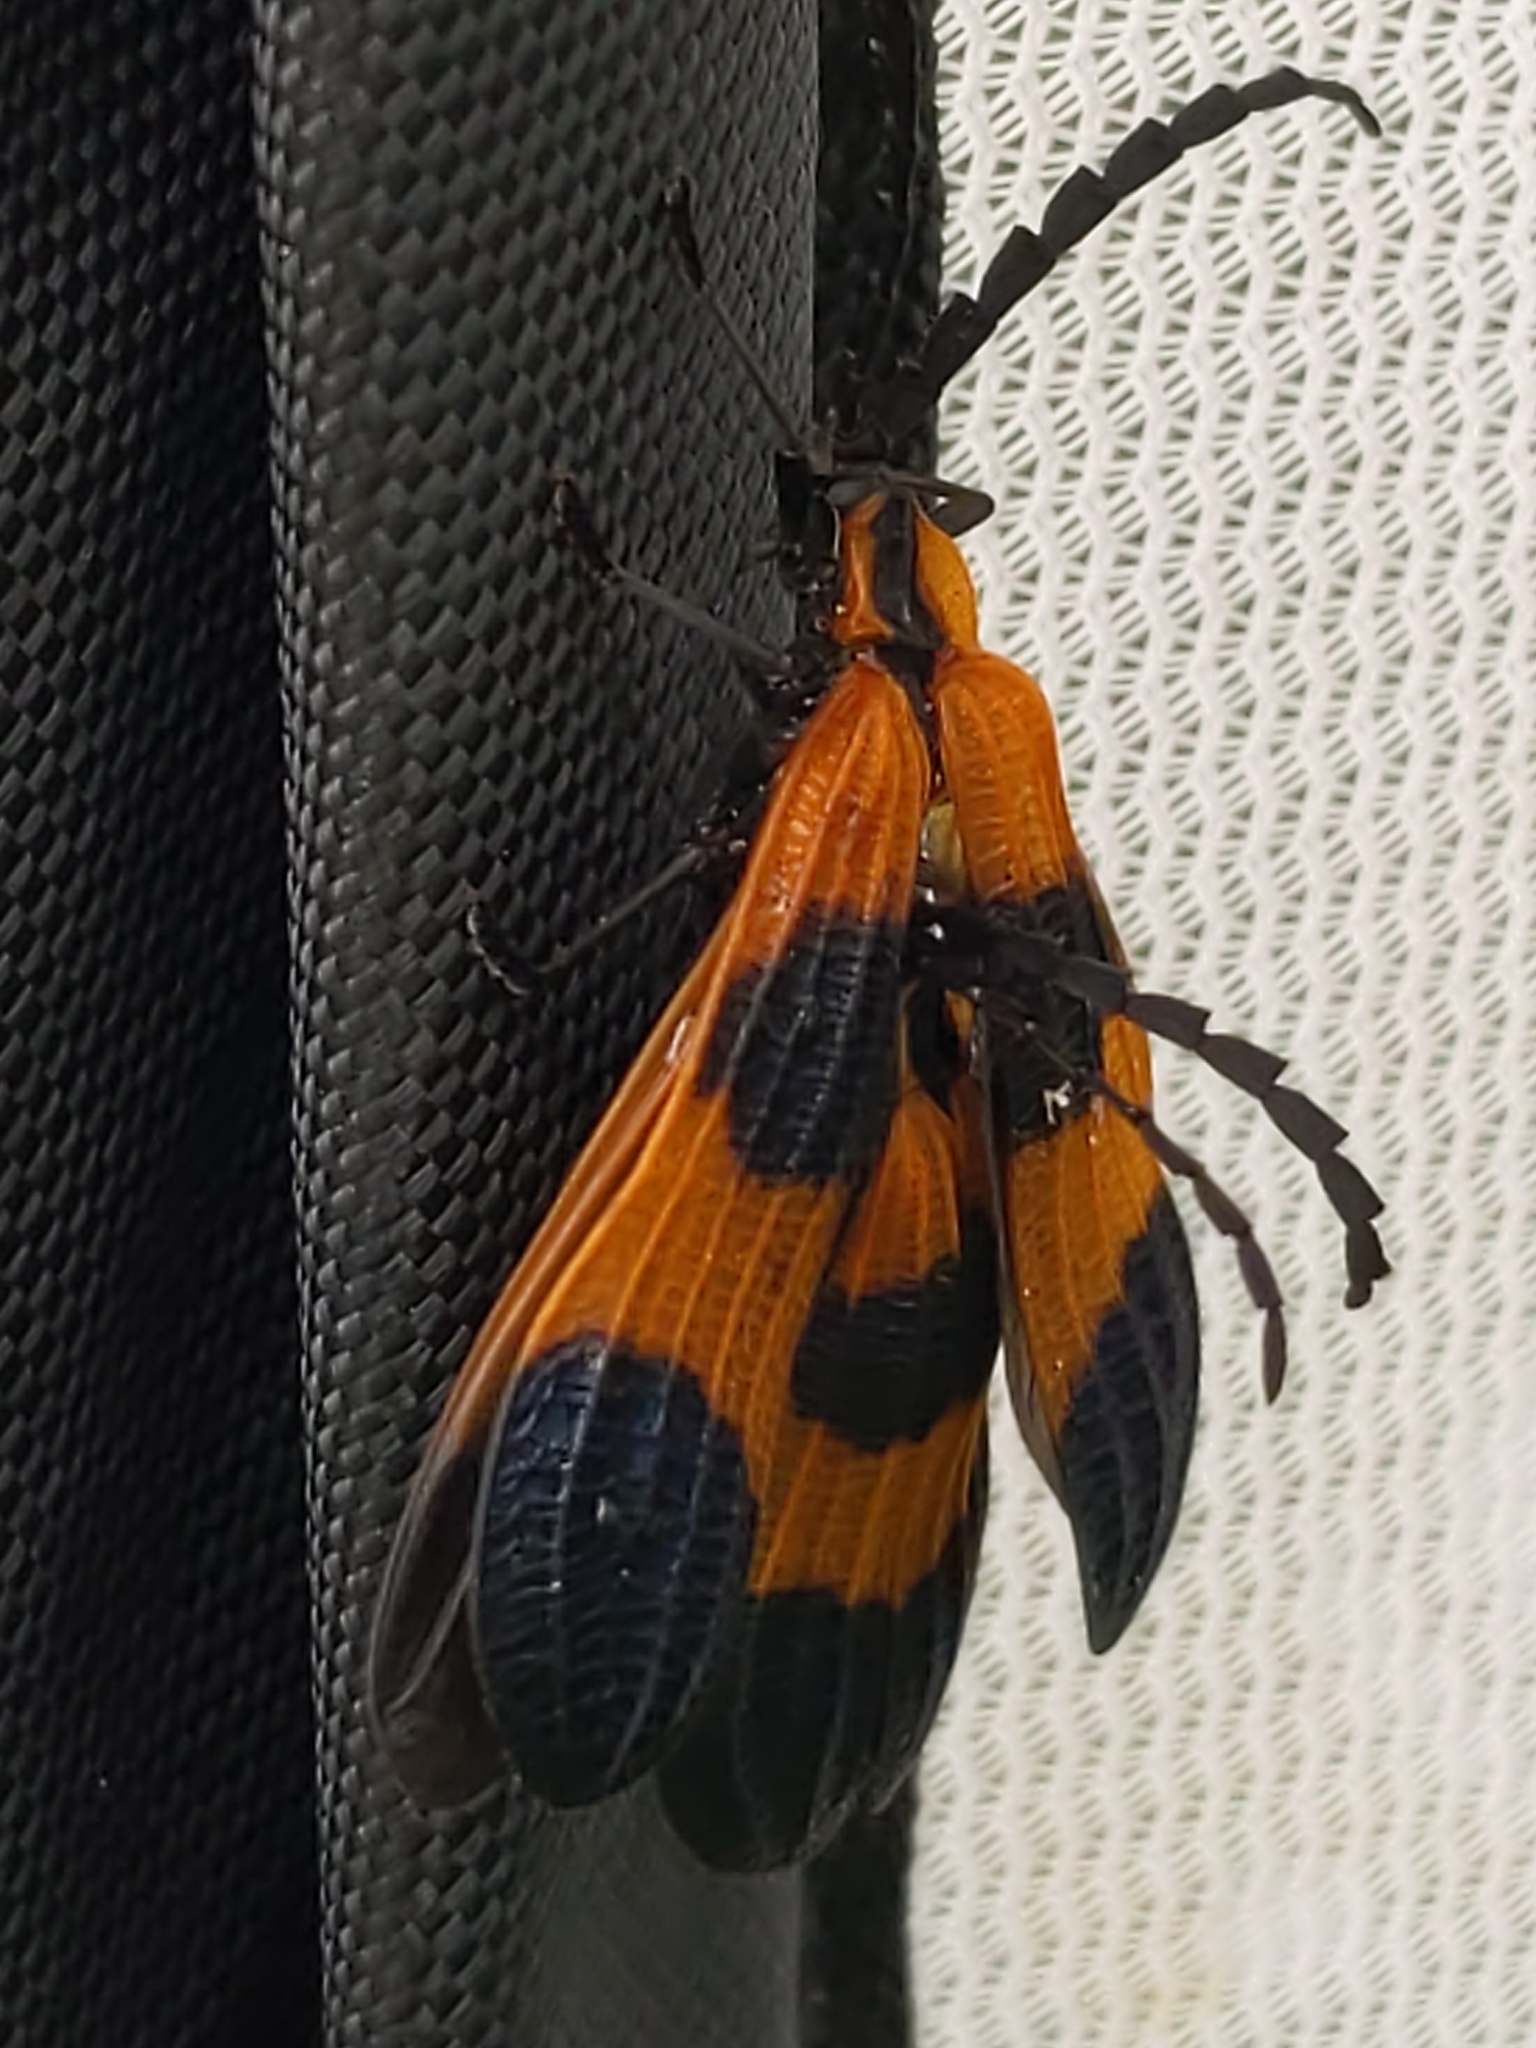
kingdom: Animalia
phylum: Arthropoda
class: Insecta
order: Coleoptera
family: Lycidae
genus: Calopteron
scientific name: Calopteron terminale
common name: End band net-winged beetle
